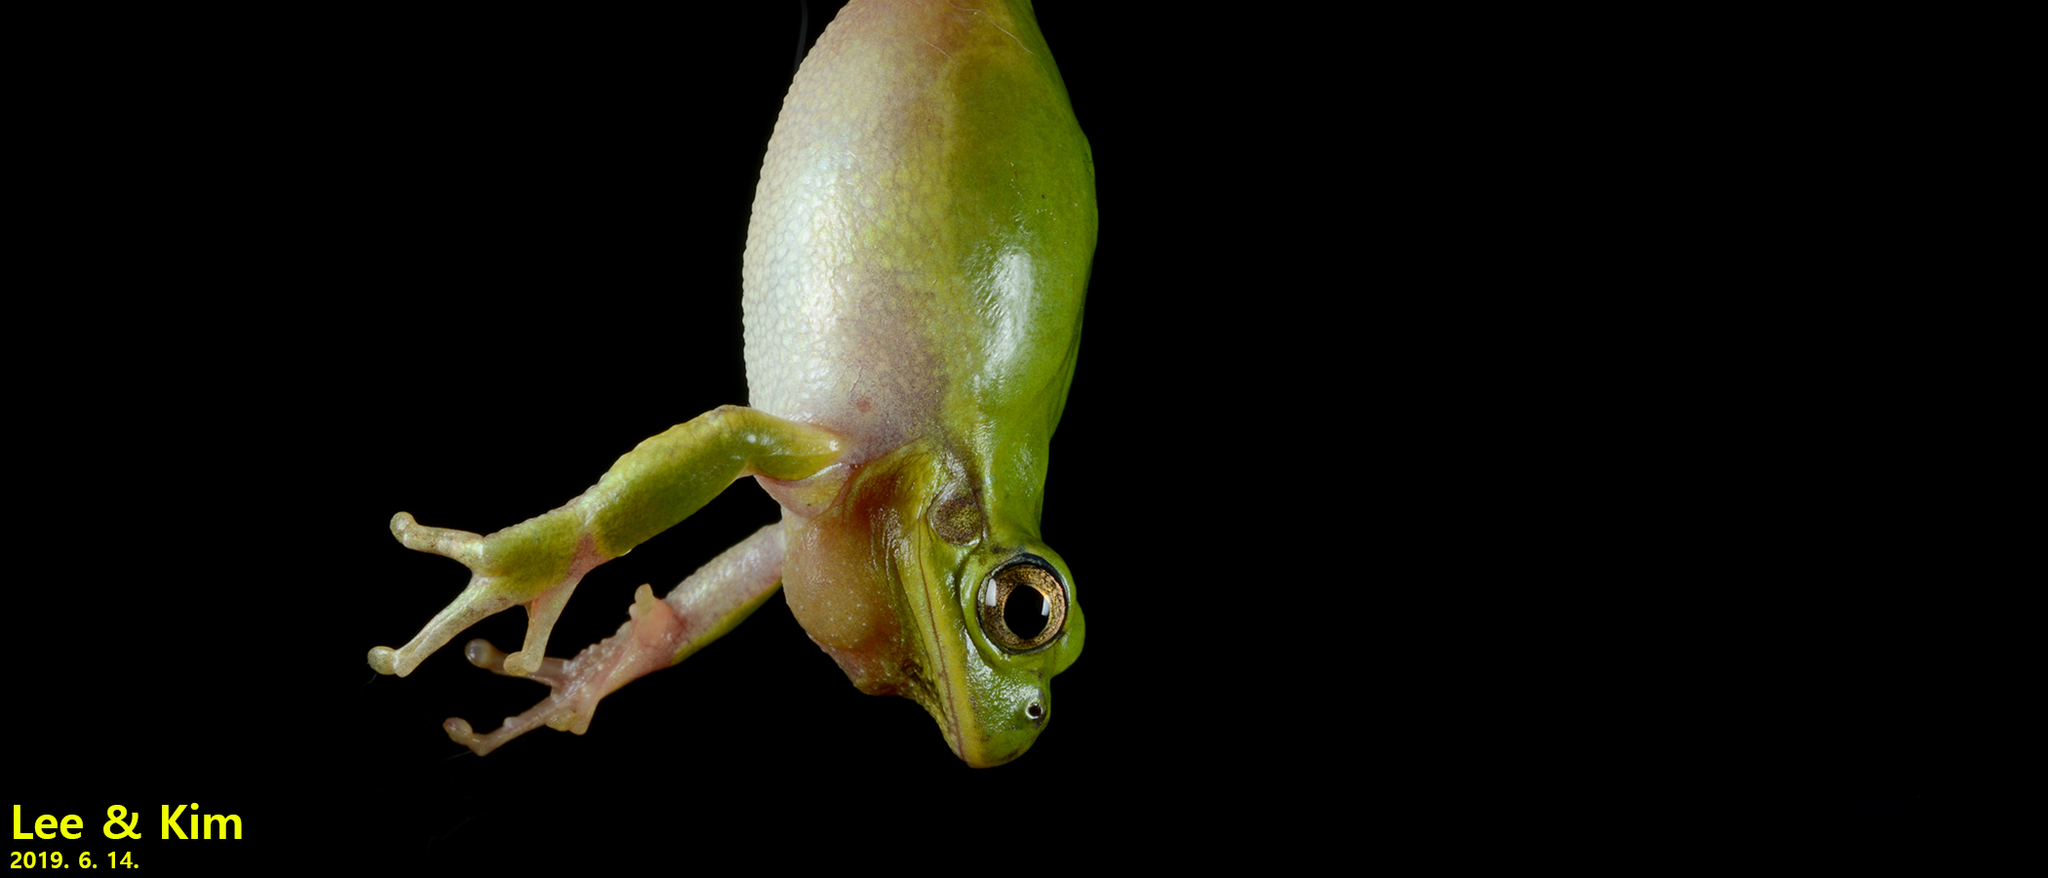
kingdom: Animalia
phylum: Chordata
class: Amphibia
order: Anura
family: Hylidae
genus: Dryophytes
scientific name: Dryophytes japonicus
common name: Japanese treefrog
